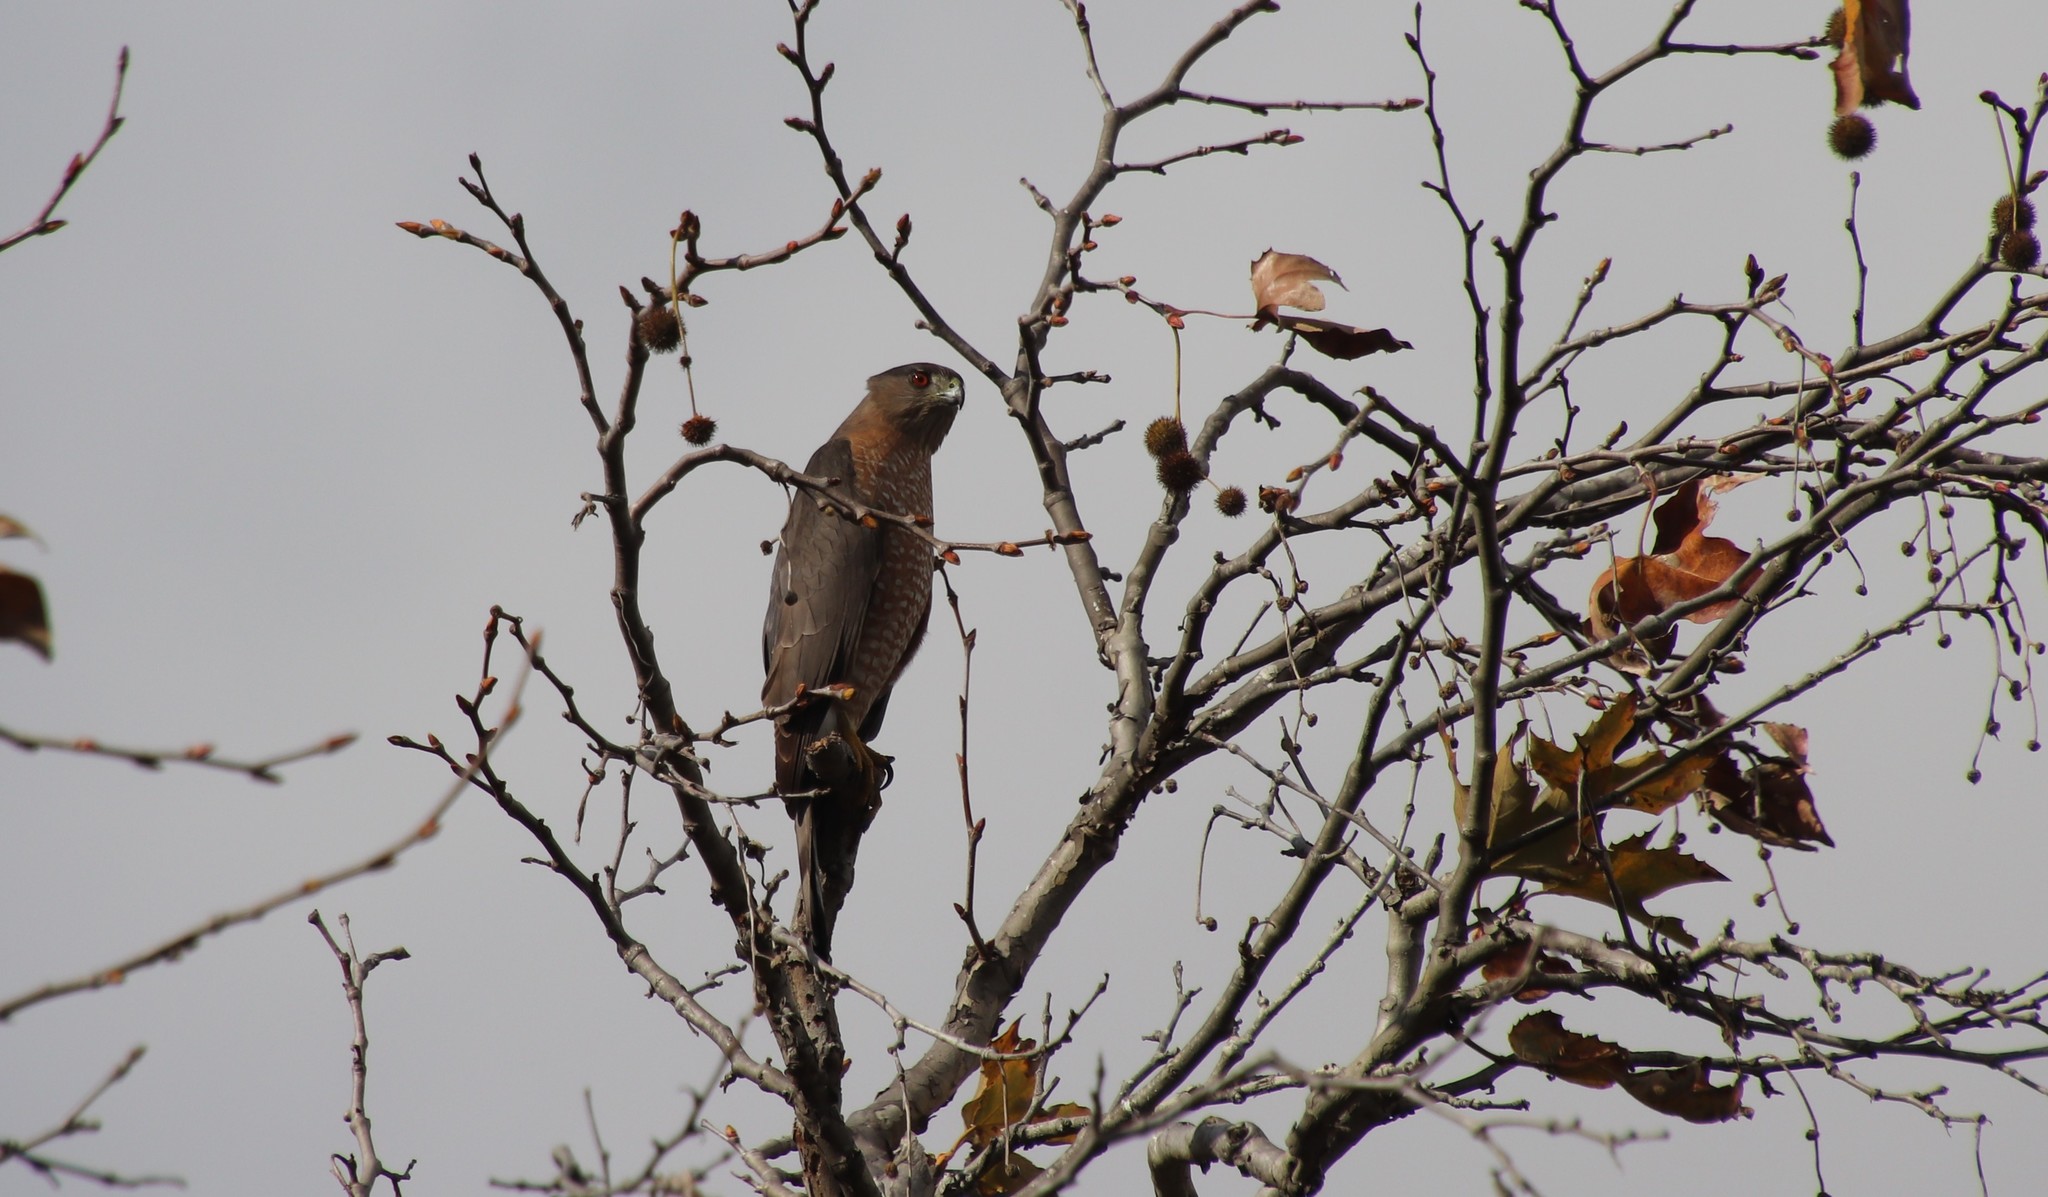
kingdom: Animalia
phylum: Chordata
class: Aves
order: Accipitriformes
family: Accipitridae
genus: Accipiter
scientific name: Accipiter cooperii
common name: Cooper's hawk
